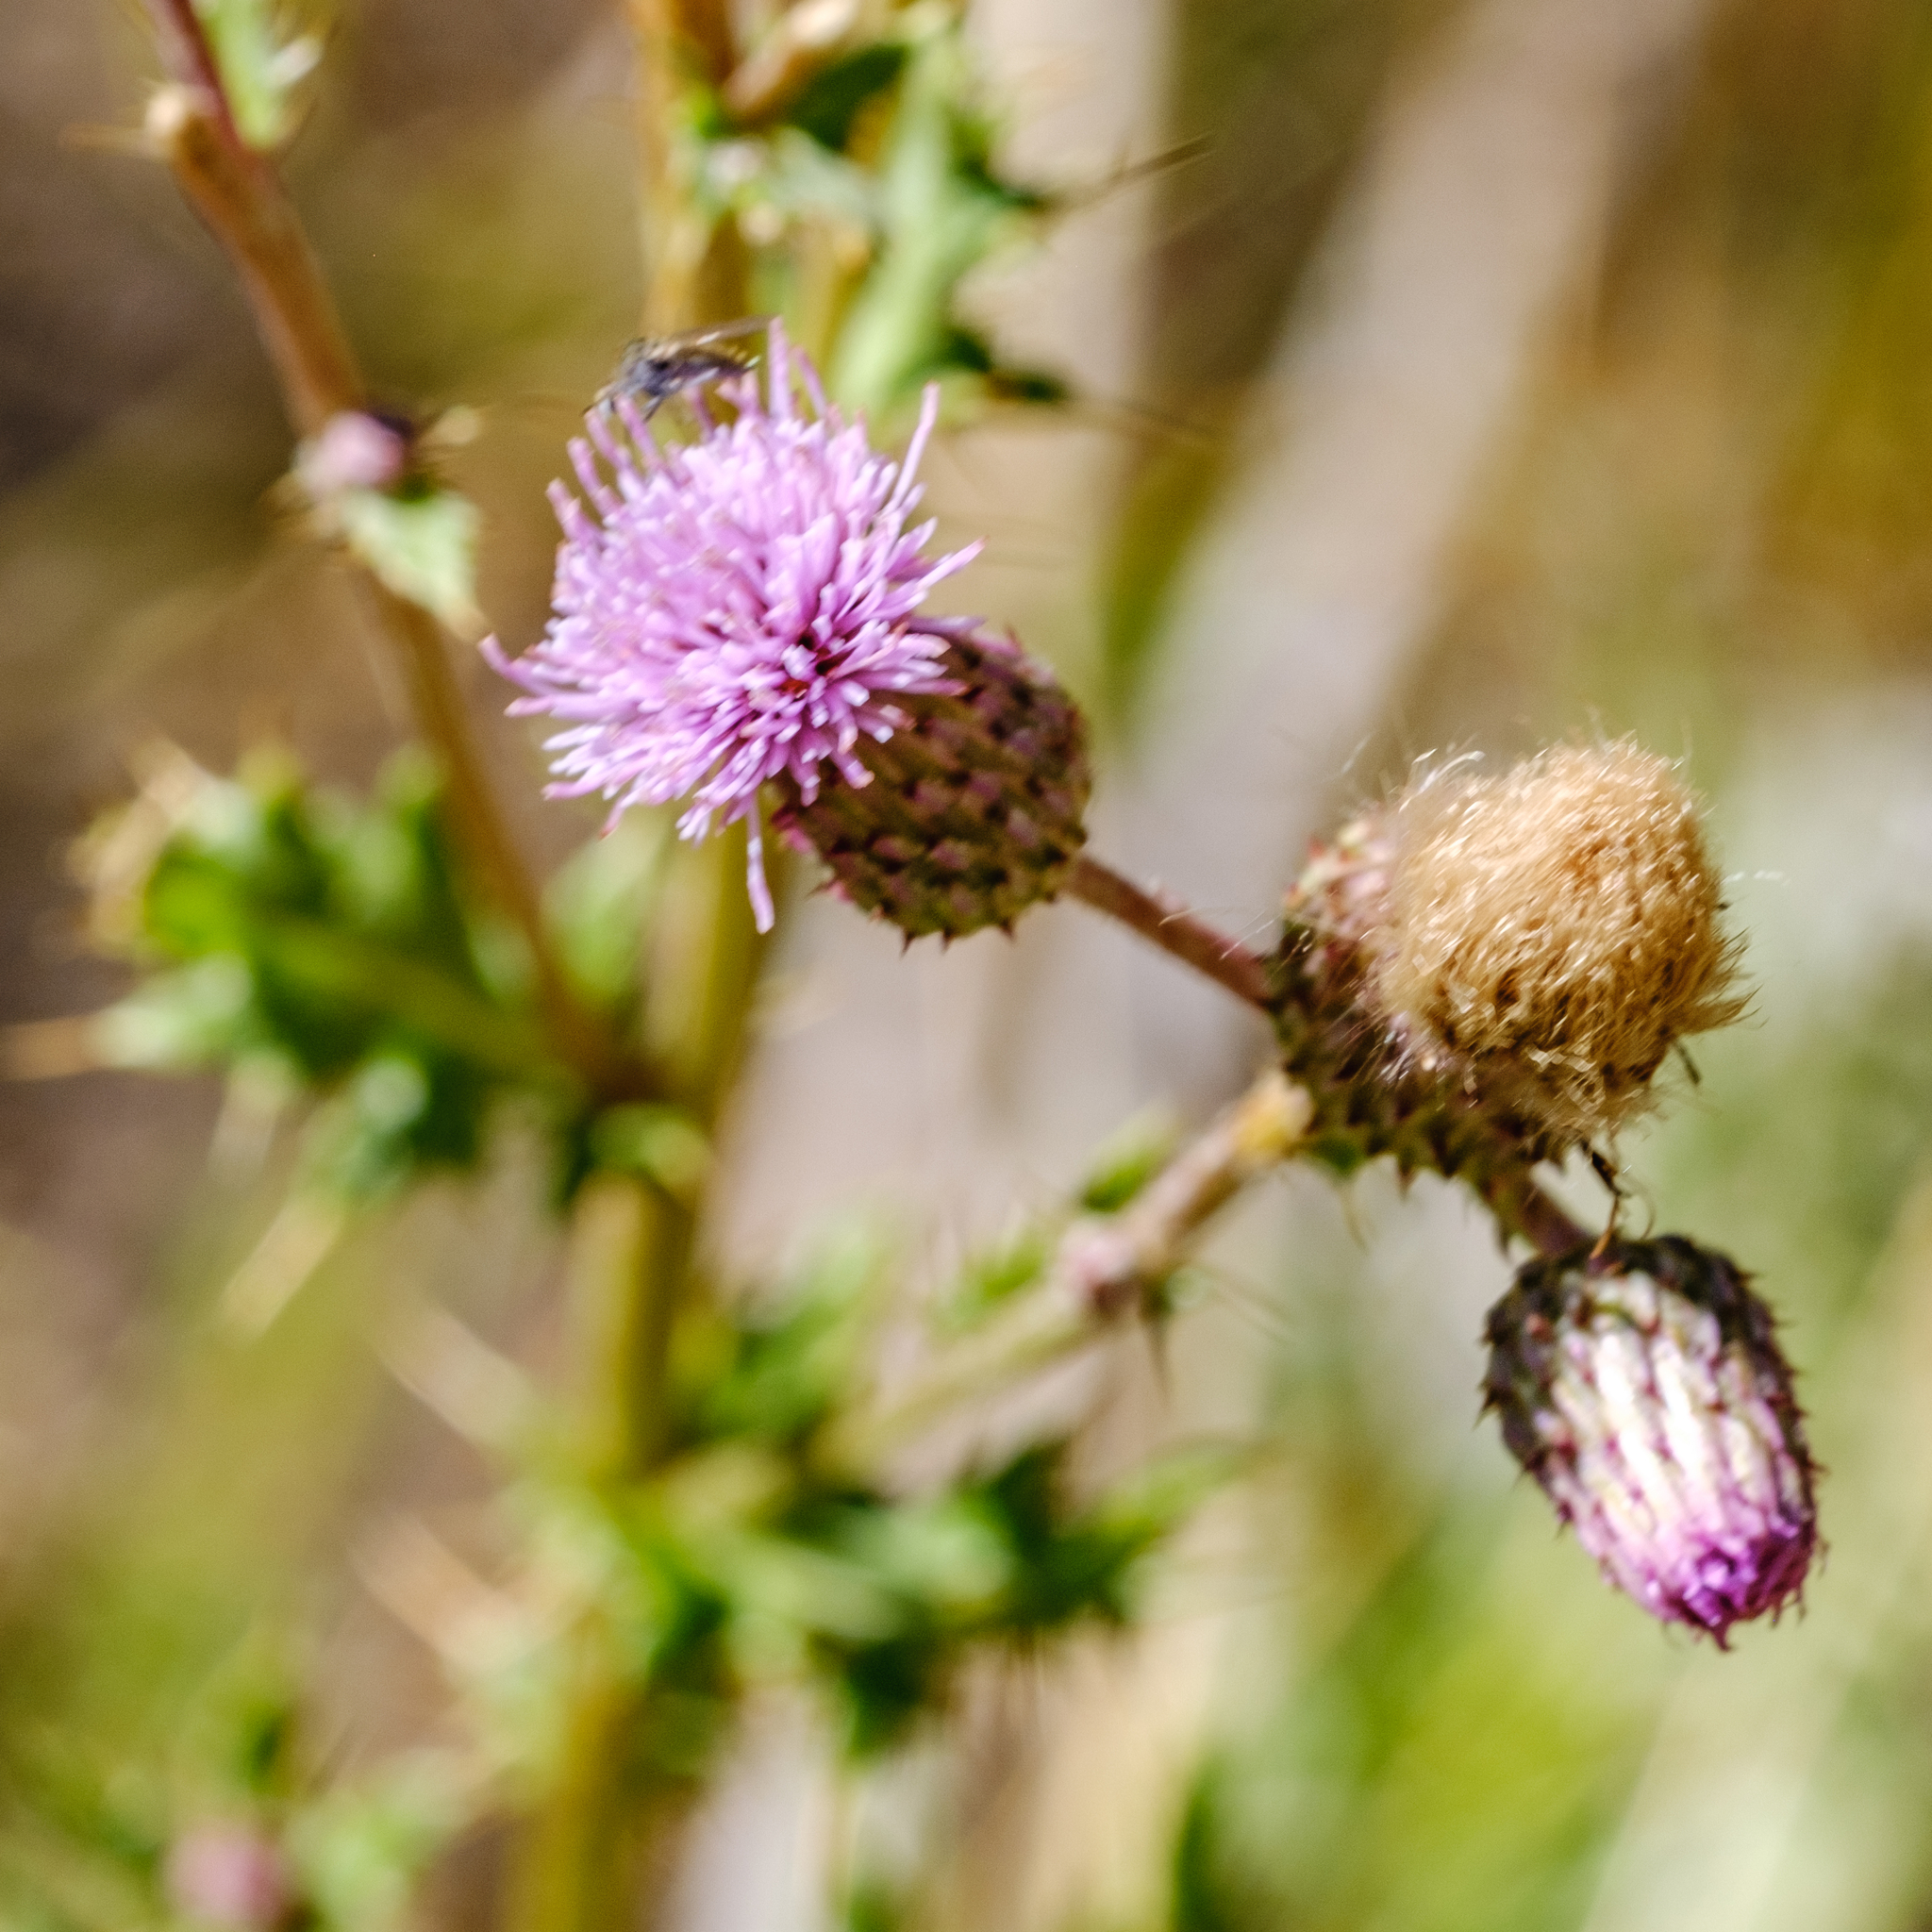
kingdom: Plantae
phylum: Tracheophyta
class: Magnoliopsida
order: Asterales
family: Asteraceae
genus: Cirsium
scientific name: Cirsium arvense
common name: Creeping thistle
